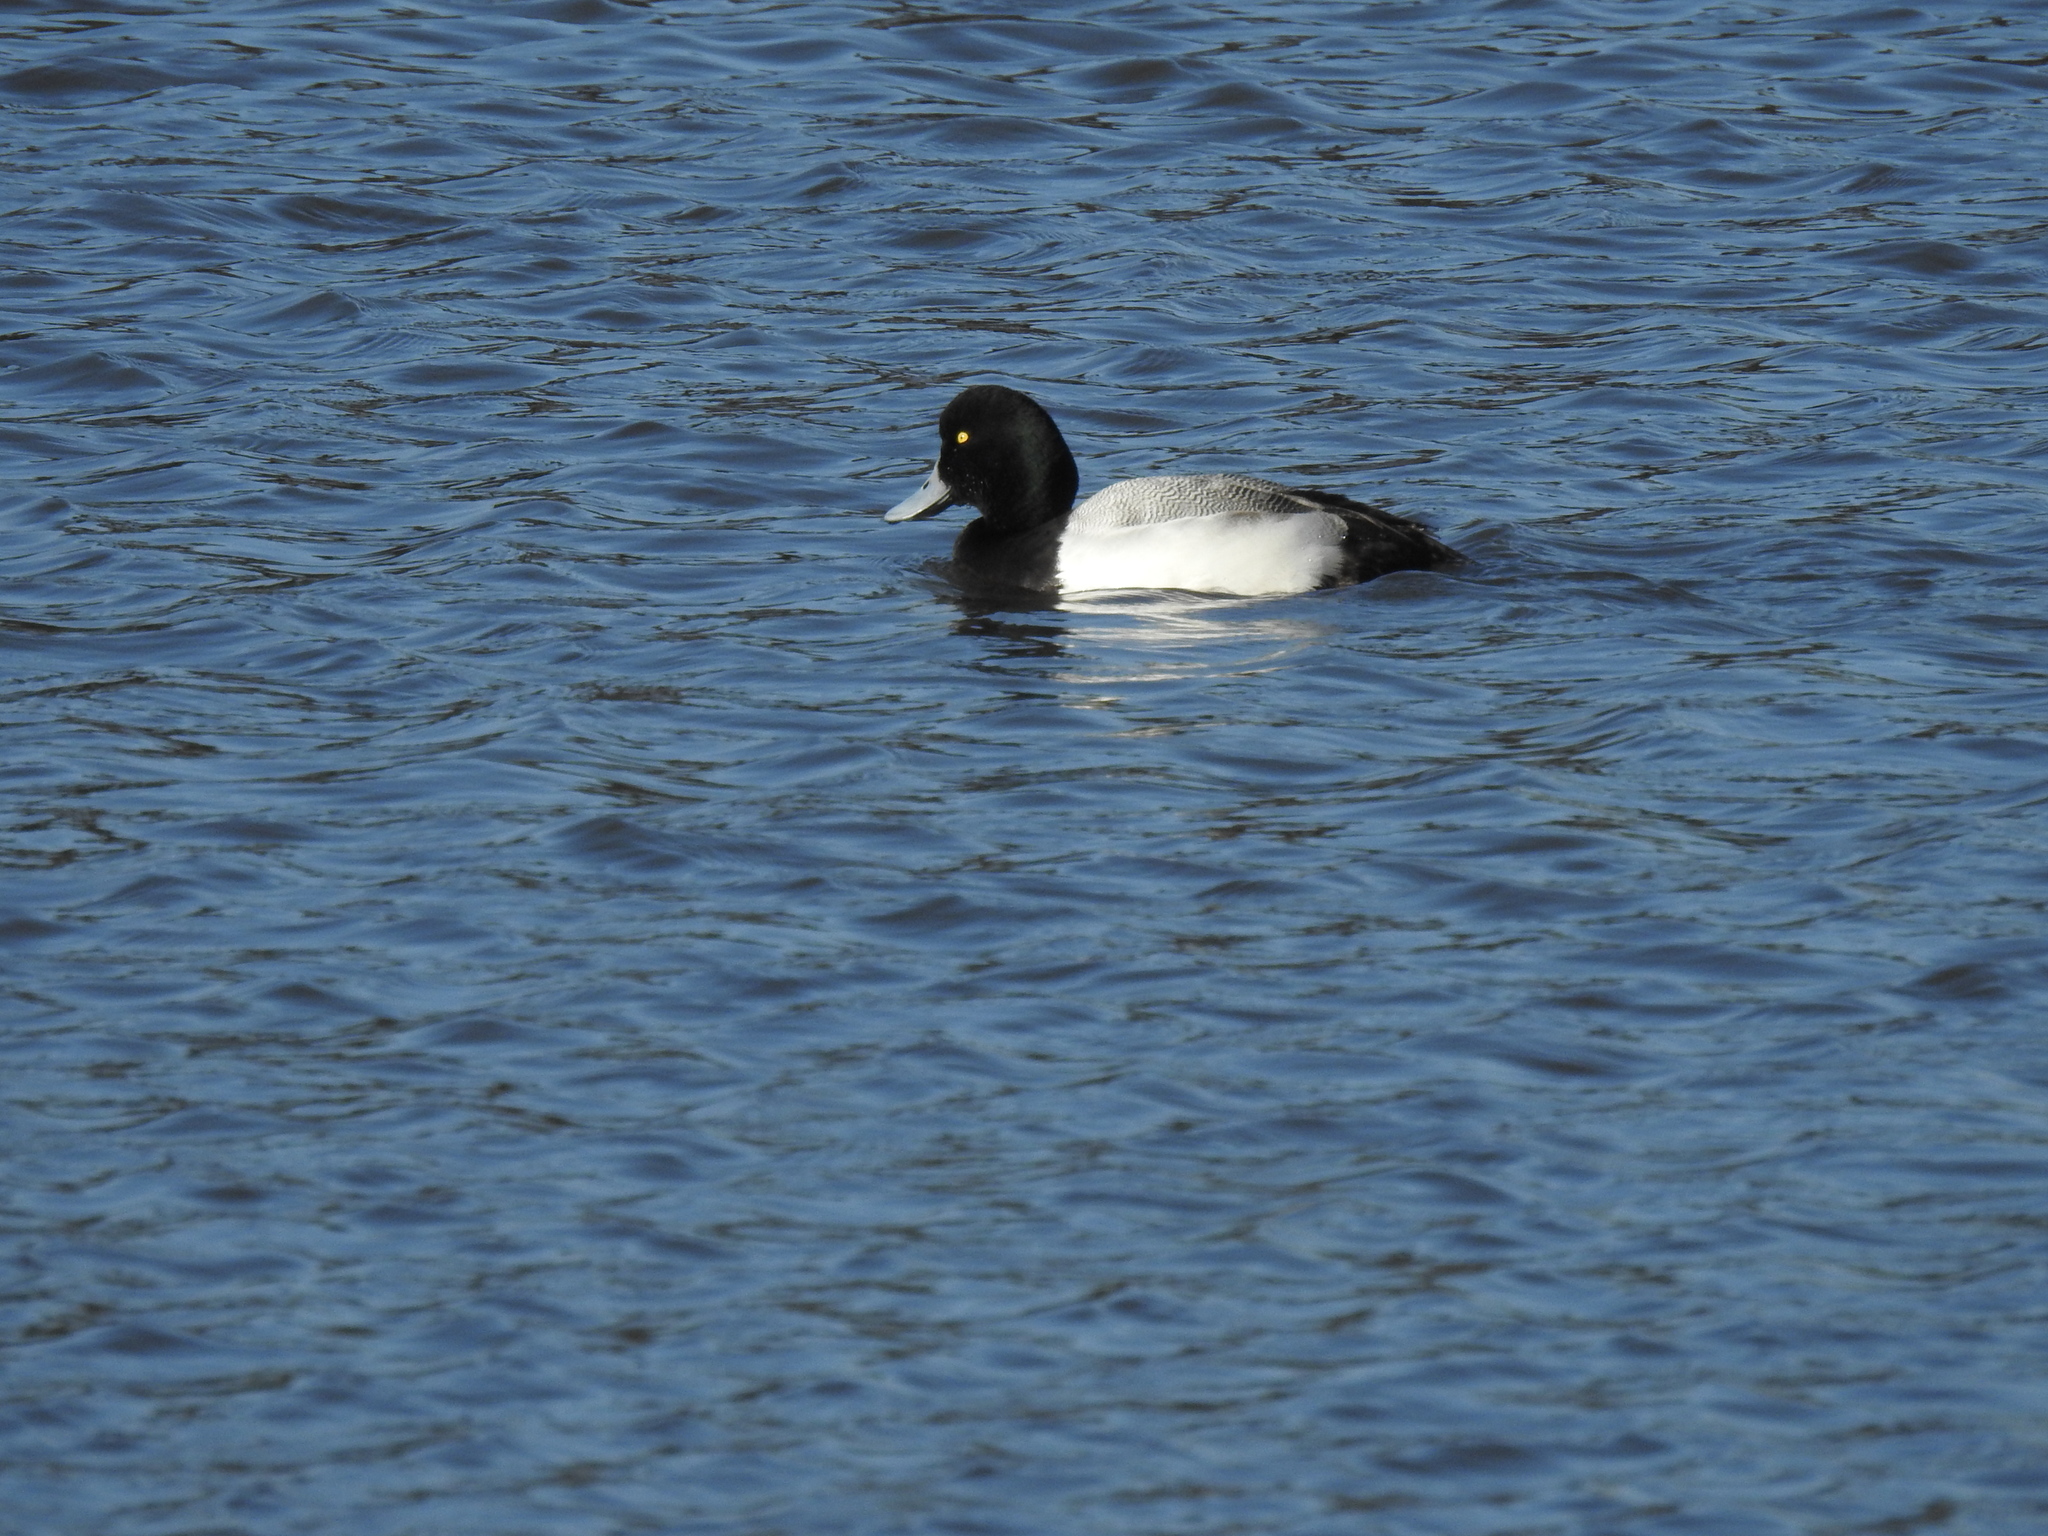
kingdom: Animalia
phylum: Chordata
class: Aves
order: Anseriformes
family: Anatidae
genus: Aythya
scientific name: Aythya marila
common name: Greater scaup
